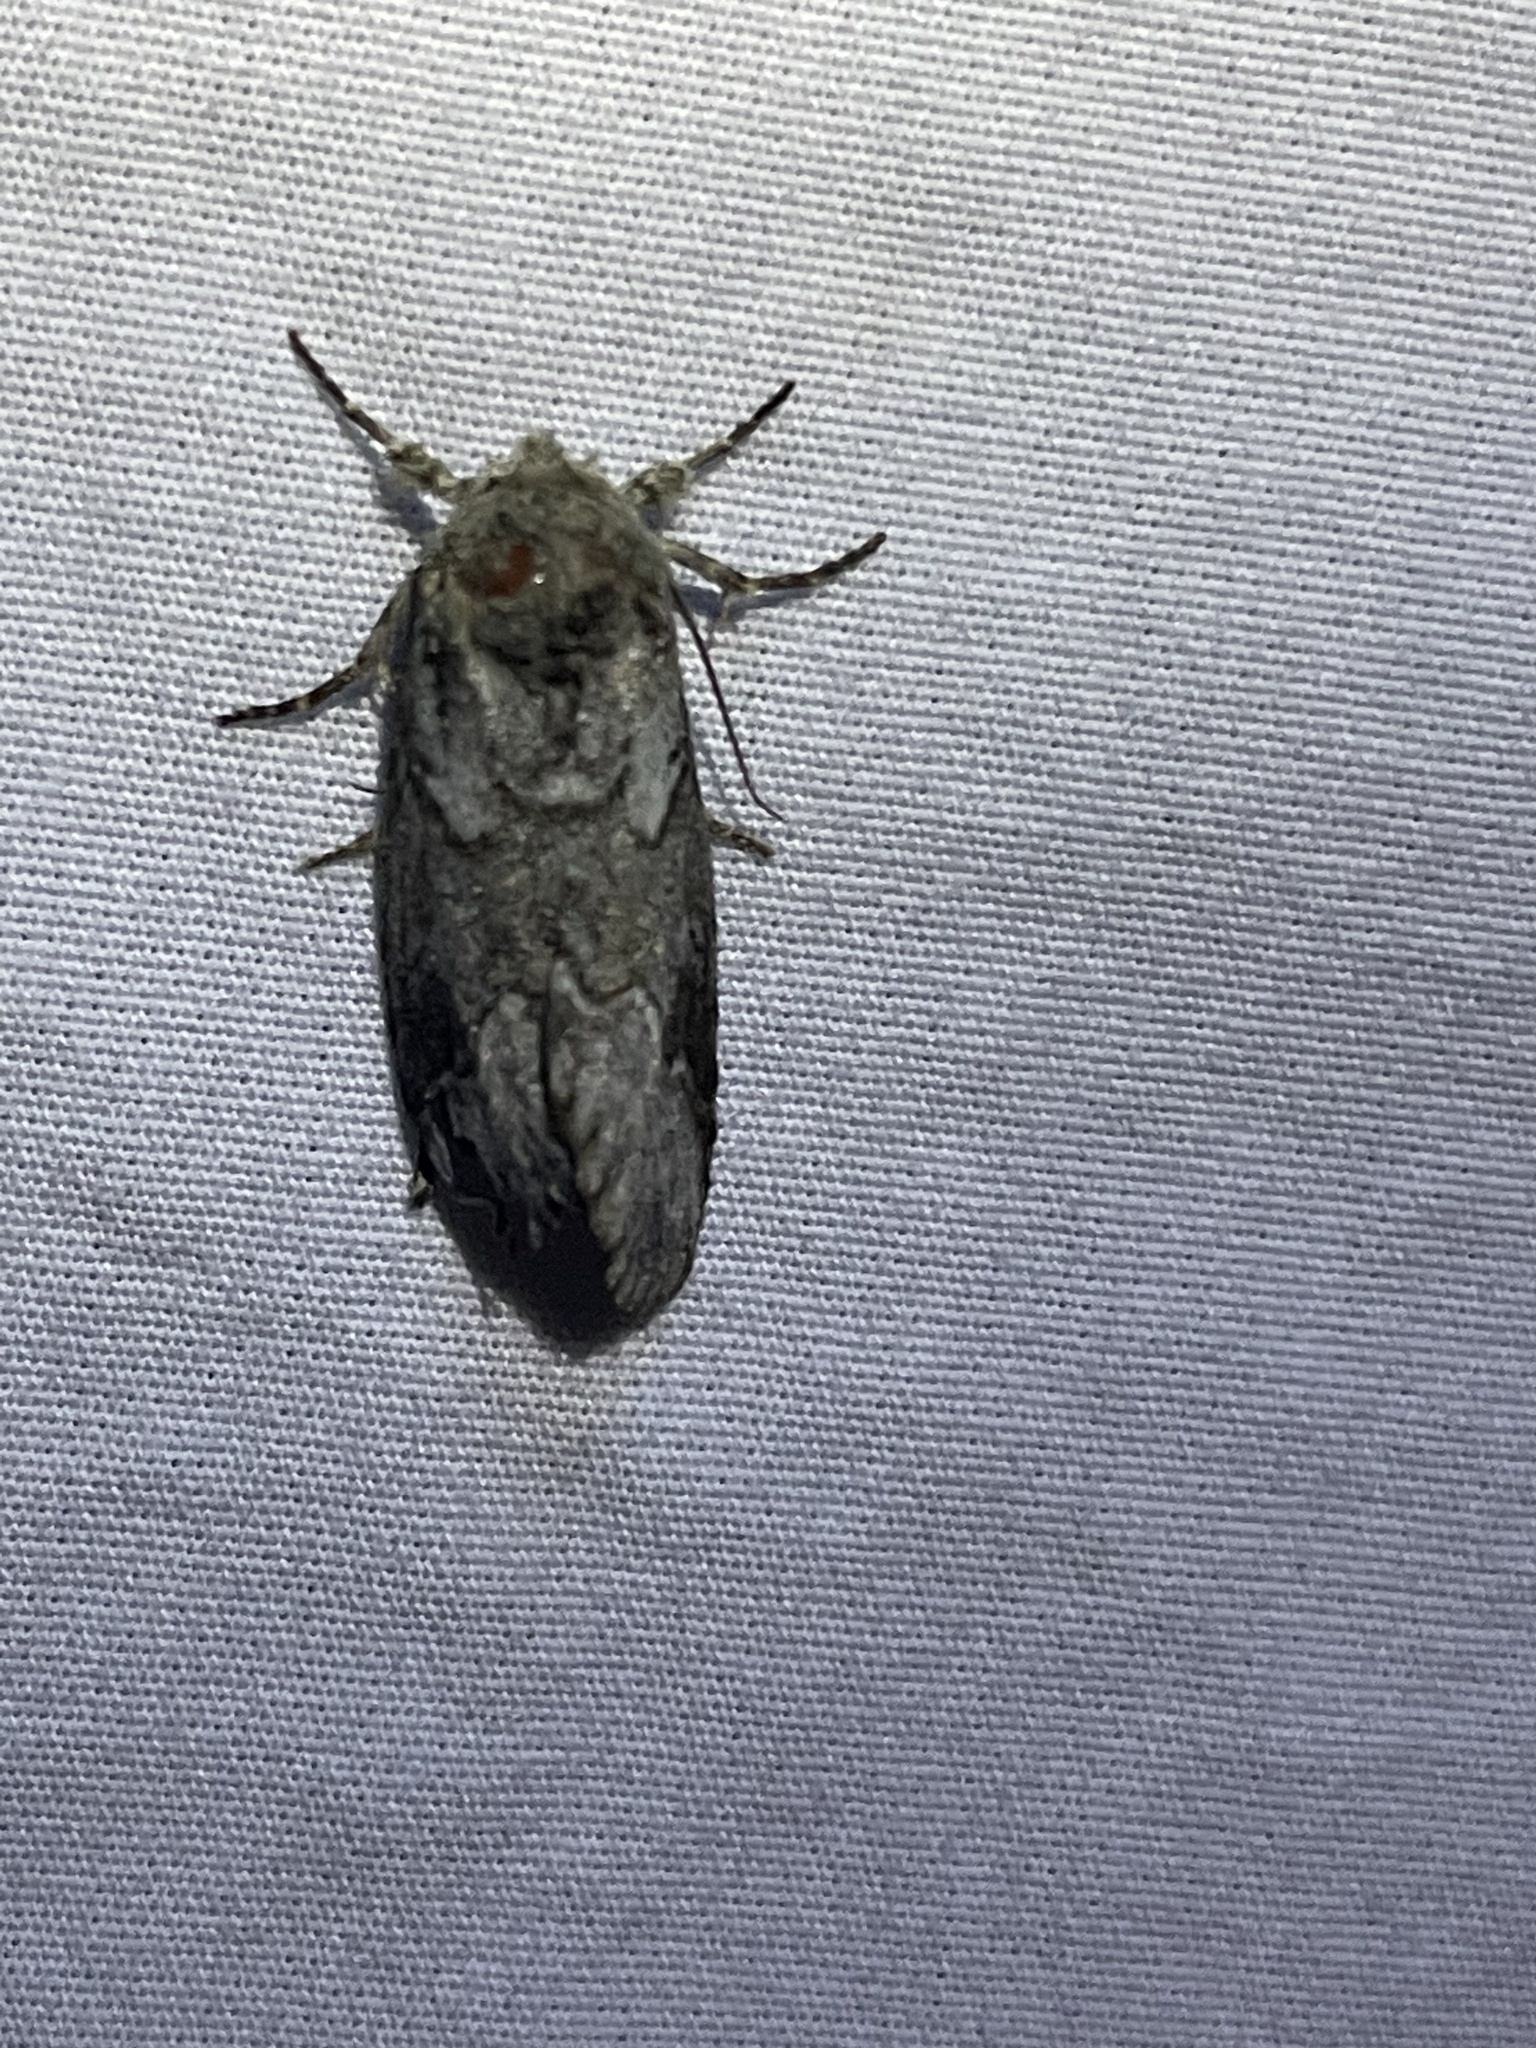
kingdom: Animalia
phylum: Arthropoda
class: Insecta
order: Lepidoptera
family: Notodontidae
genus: Lochmaeus
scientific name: Lochmaeus bilineata
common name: Double-lined prominent
